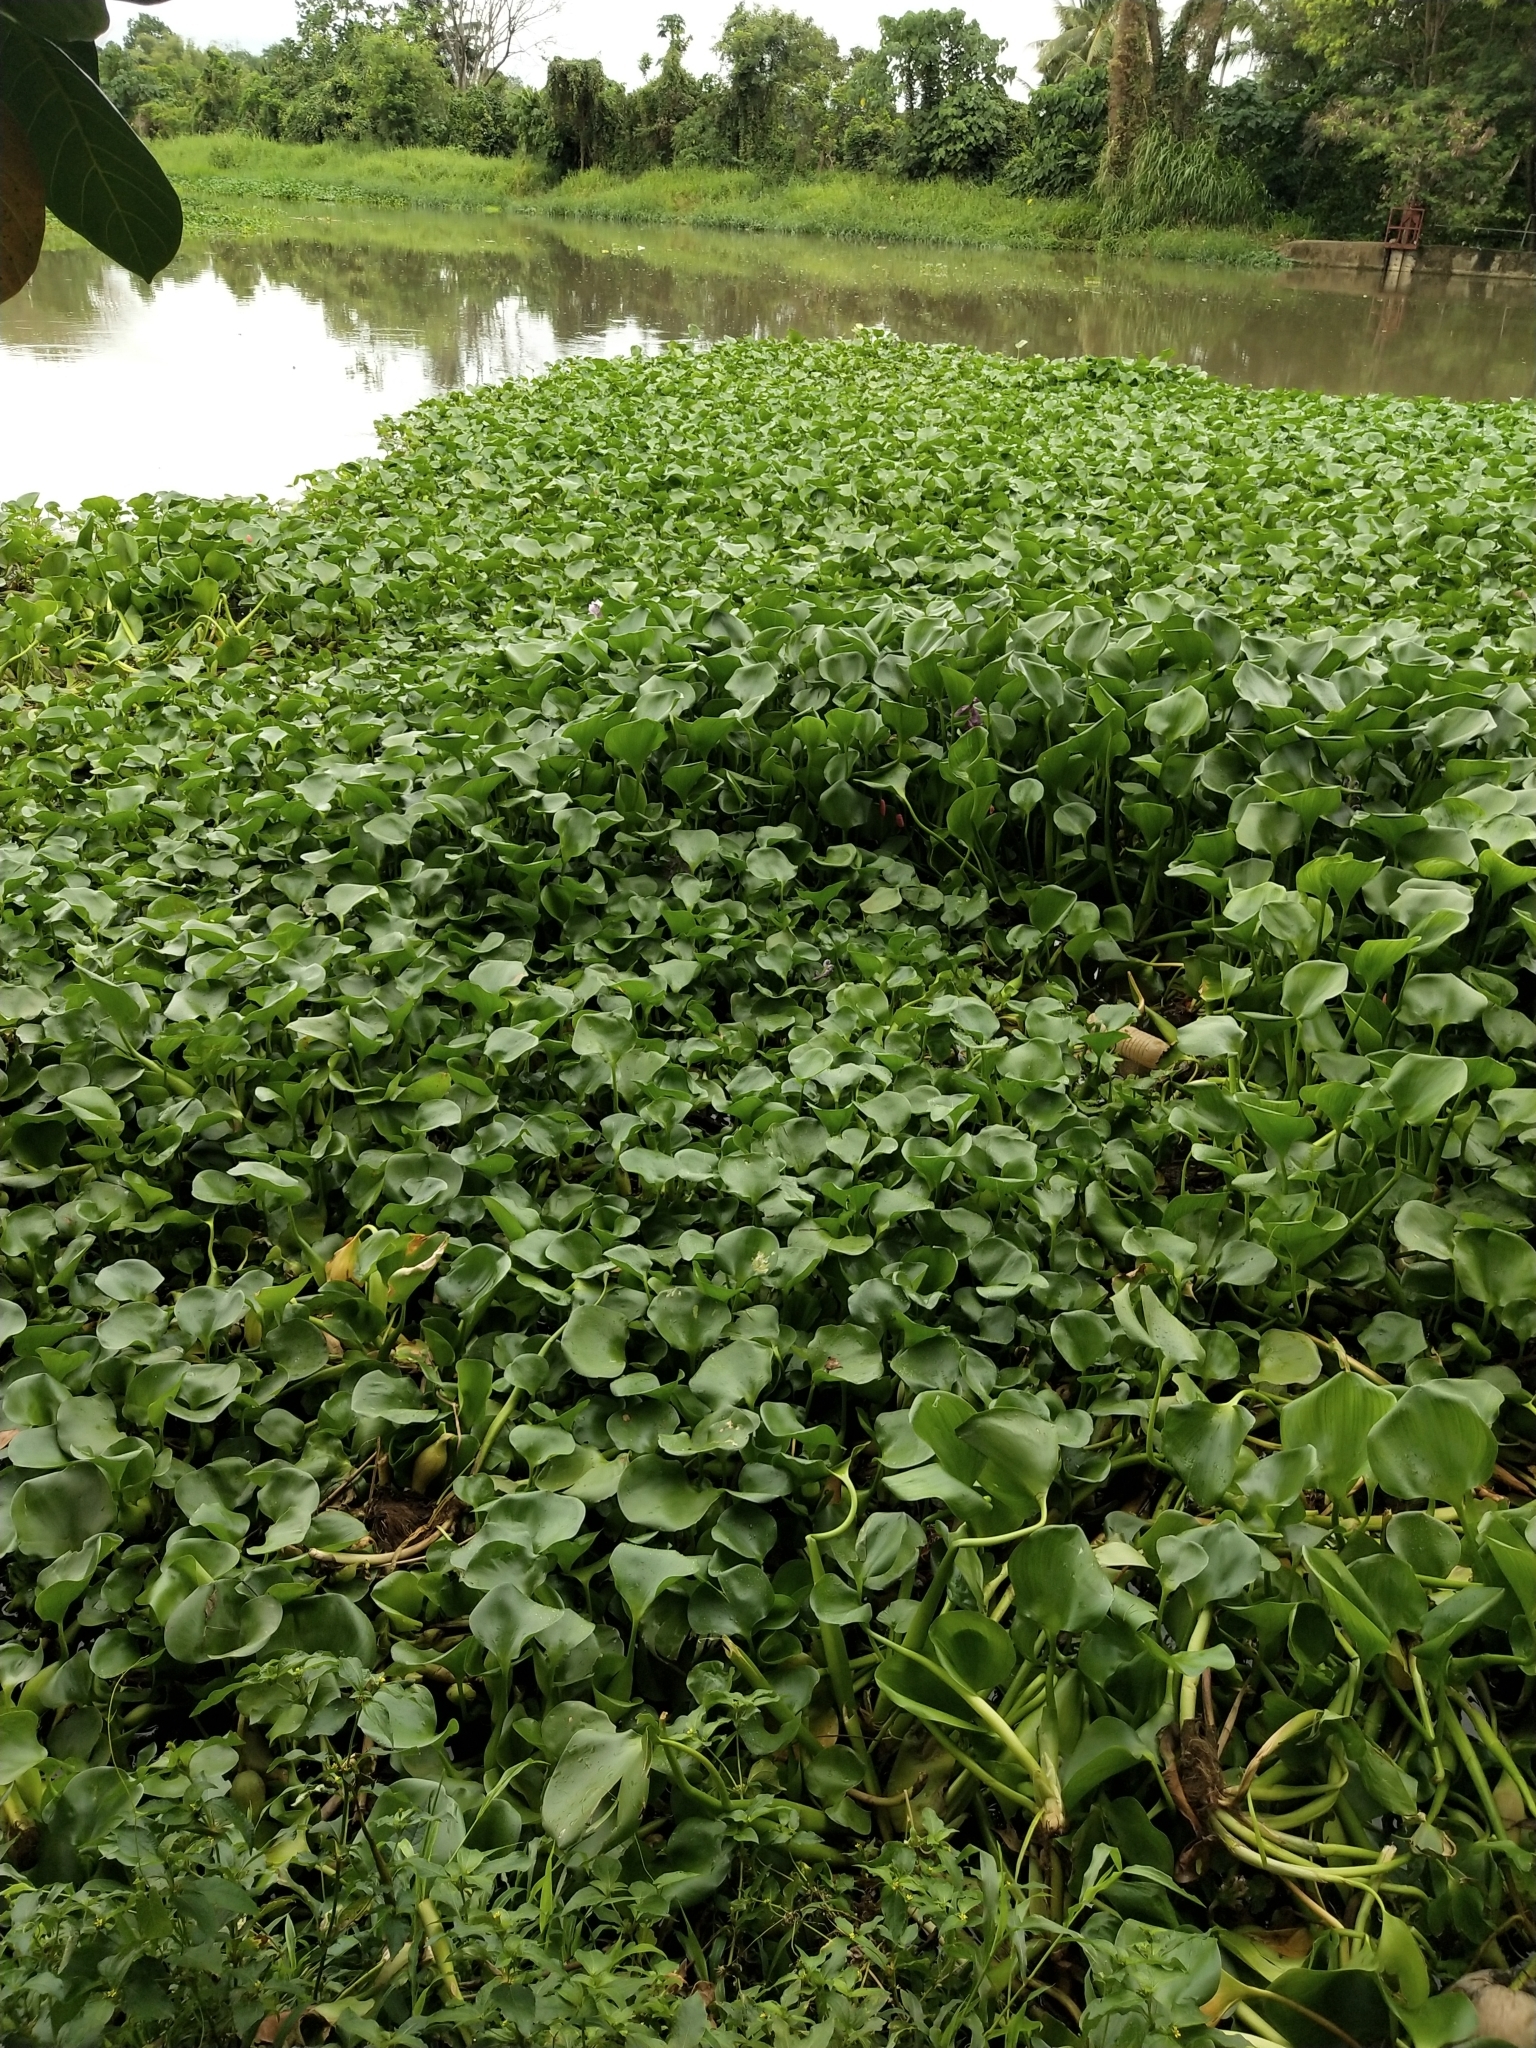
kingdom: Plantae
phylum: Tracheophyta
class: Liliopsida
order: Commelinales
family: Pontederiaceae
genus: Pontederia
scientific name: Pontederia crassipes
